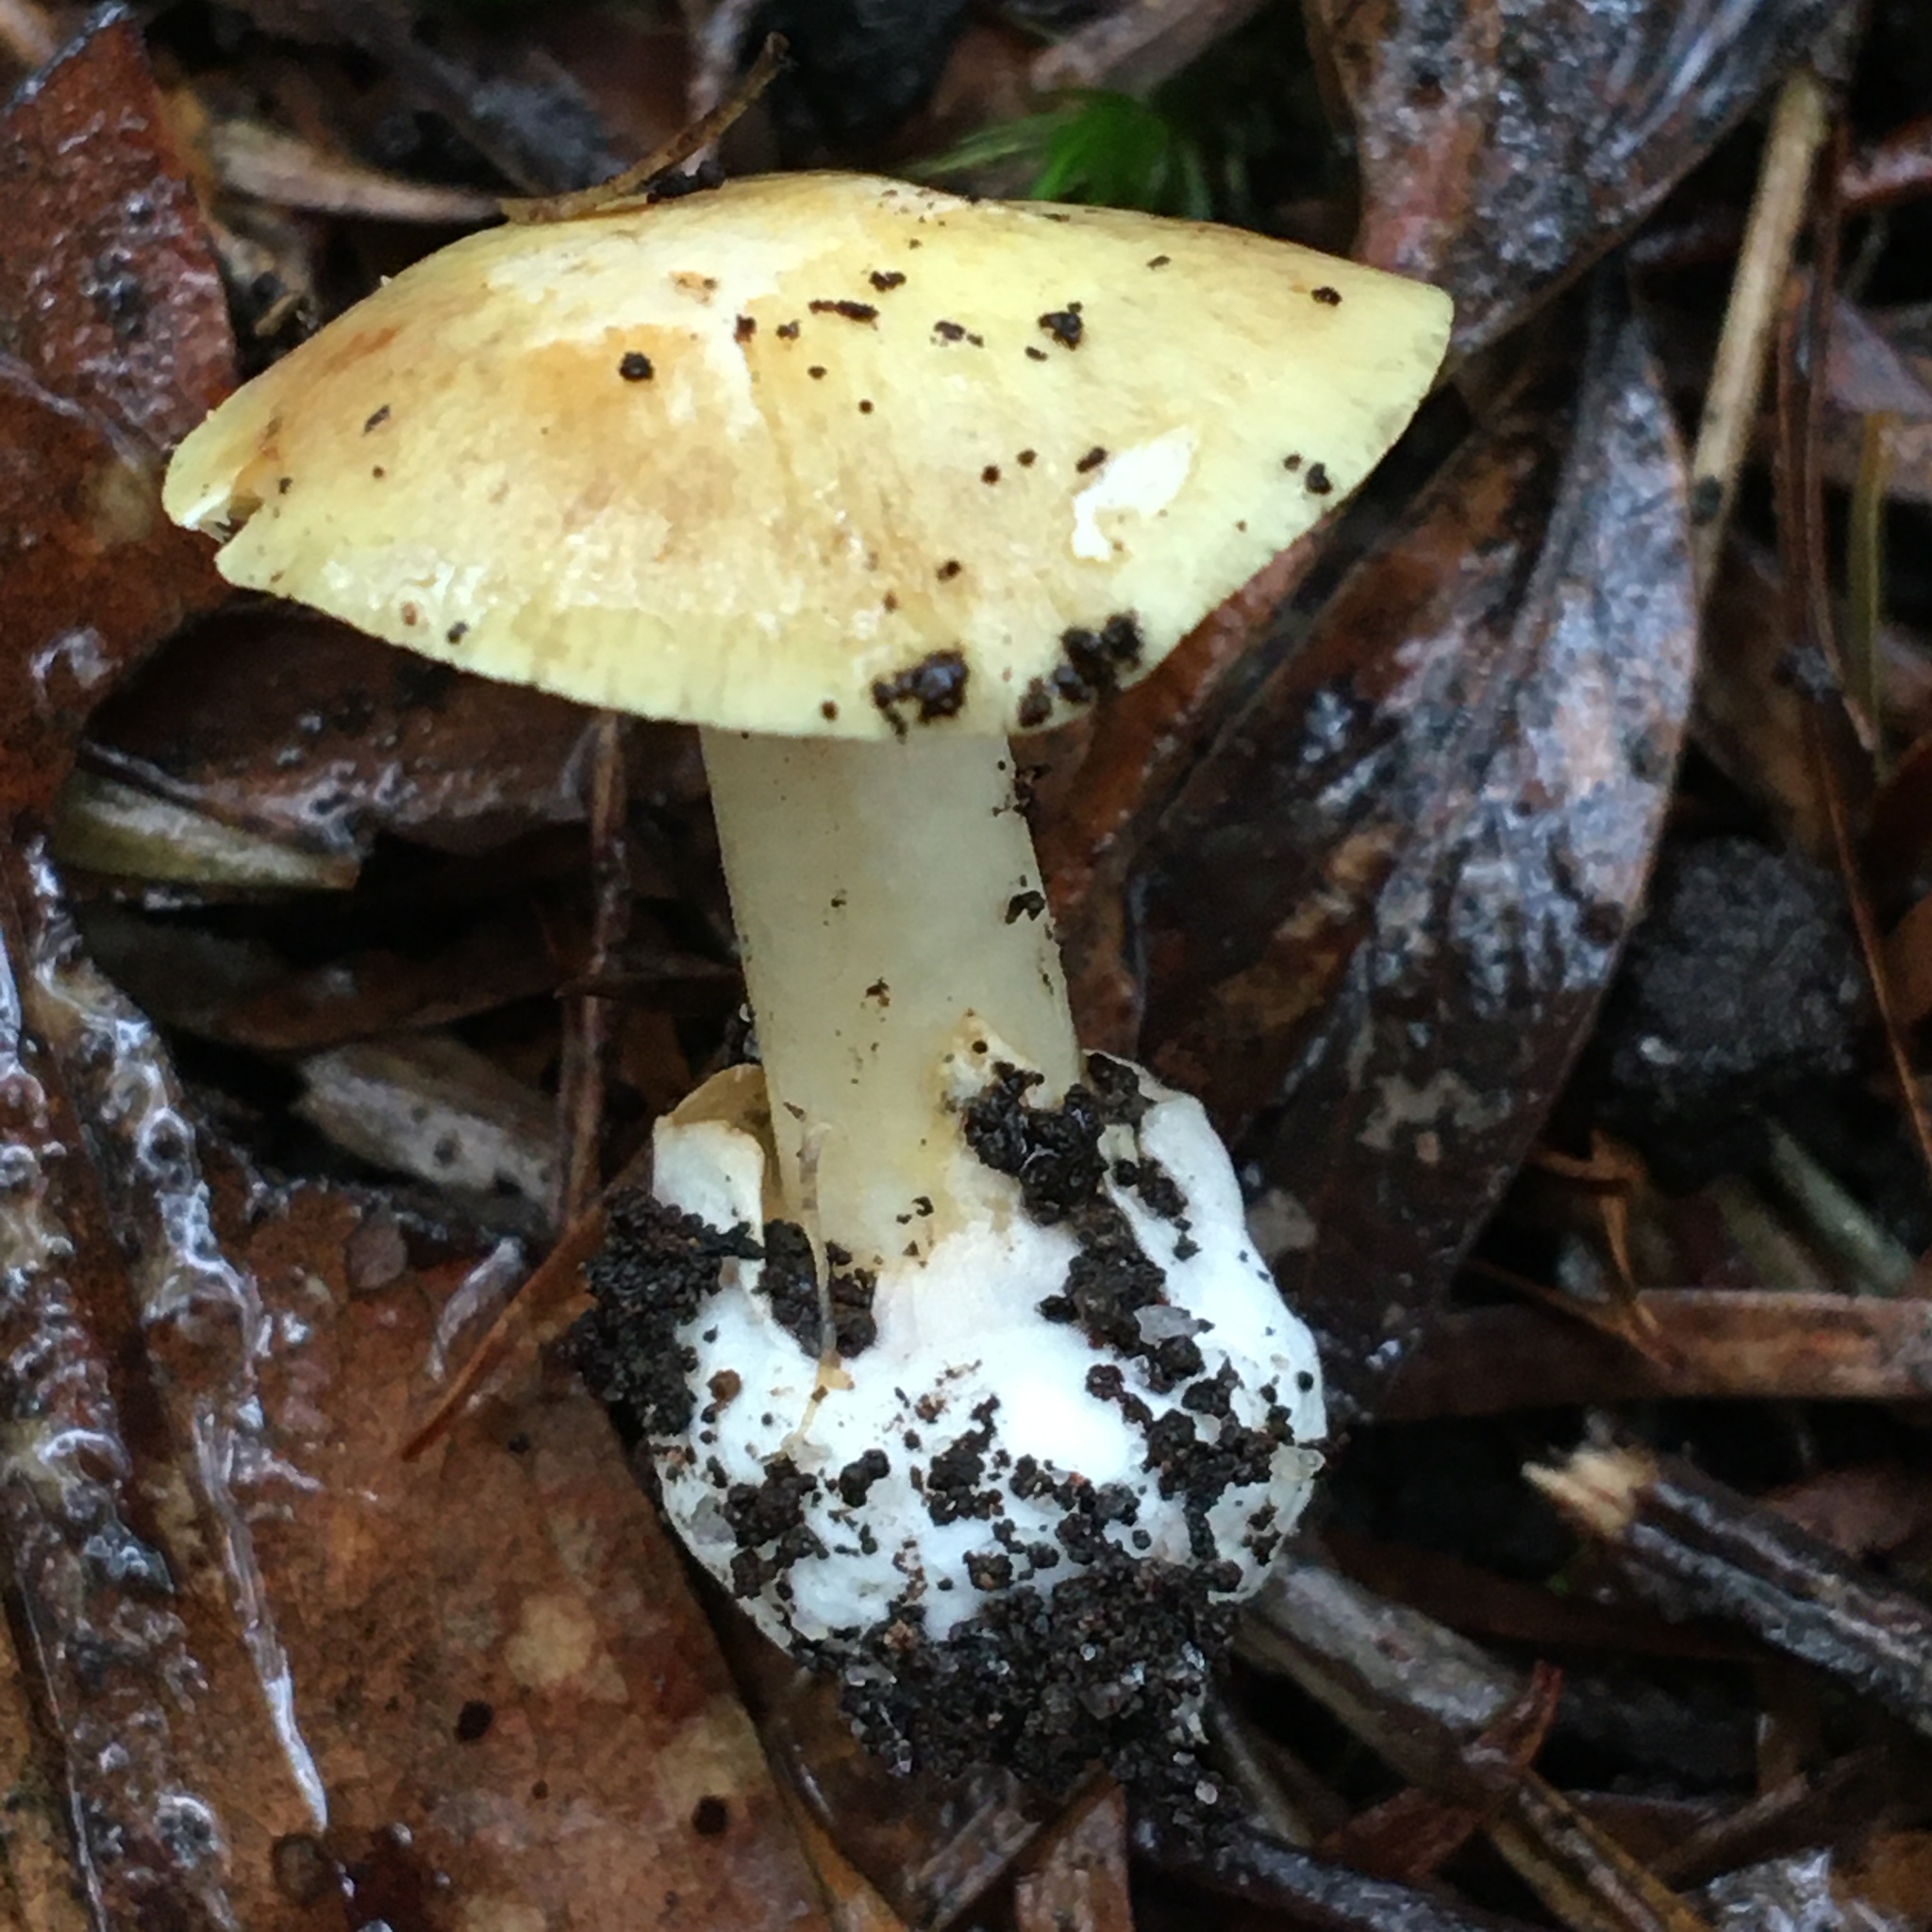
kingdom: Fungi
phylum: Basidiomycota
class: Agaricomycetes
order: Agaricales
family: Cortinariaceae
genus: Cortinarius
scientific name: Cortinarius phalarus
